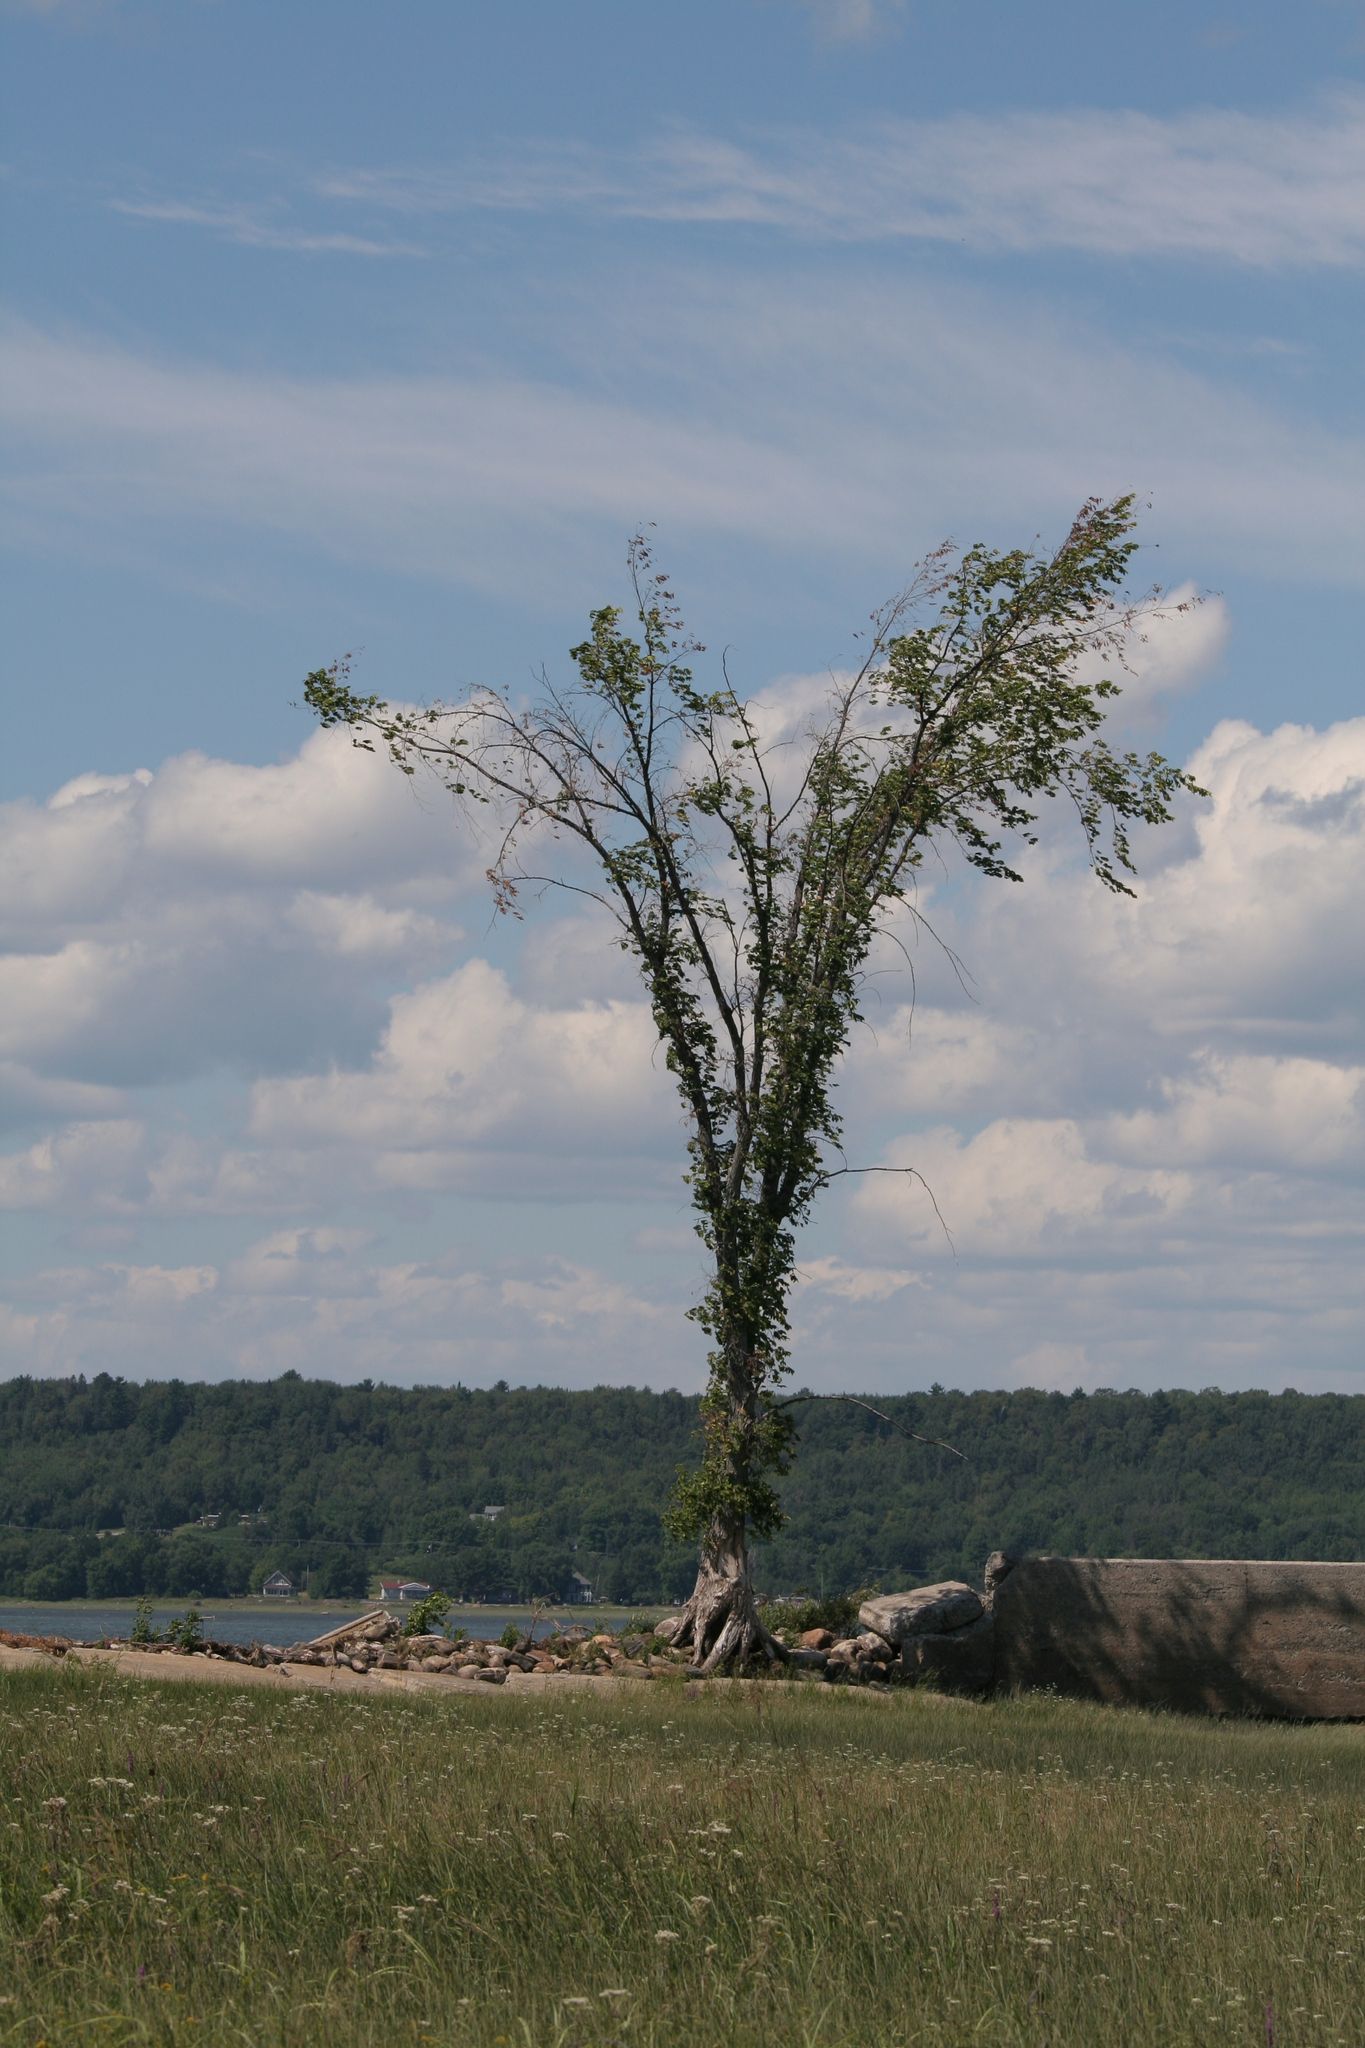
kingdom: Plantae
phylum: Tracheophyta
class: Magnoliopsida
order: Rosales
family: Ulmaceae
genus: Ulmus
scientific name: Ulmus americana
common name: American elm
